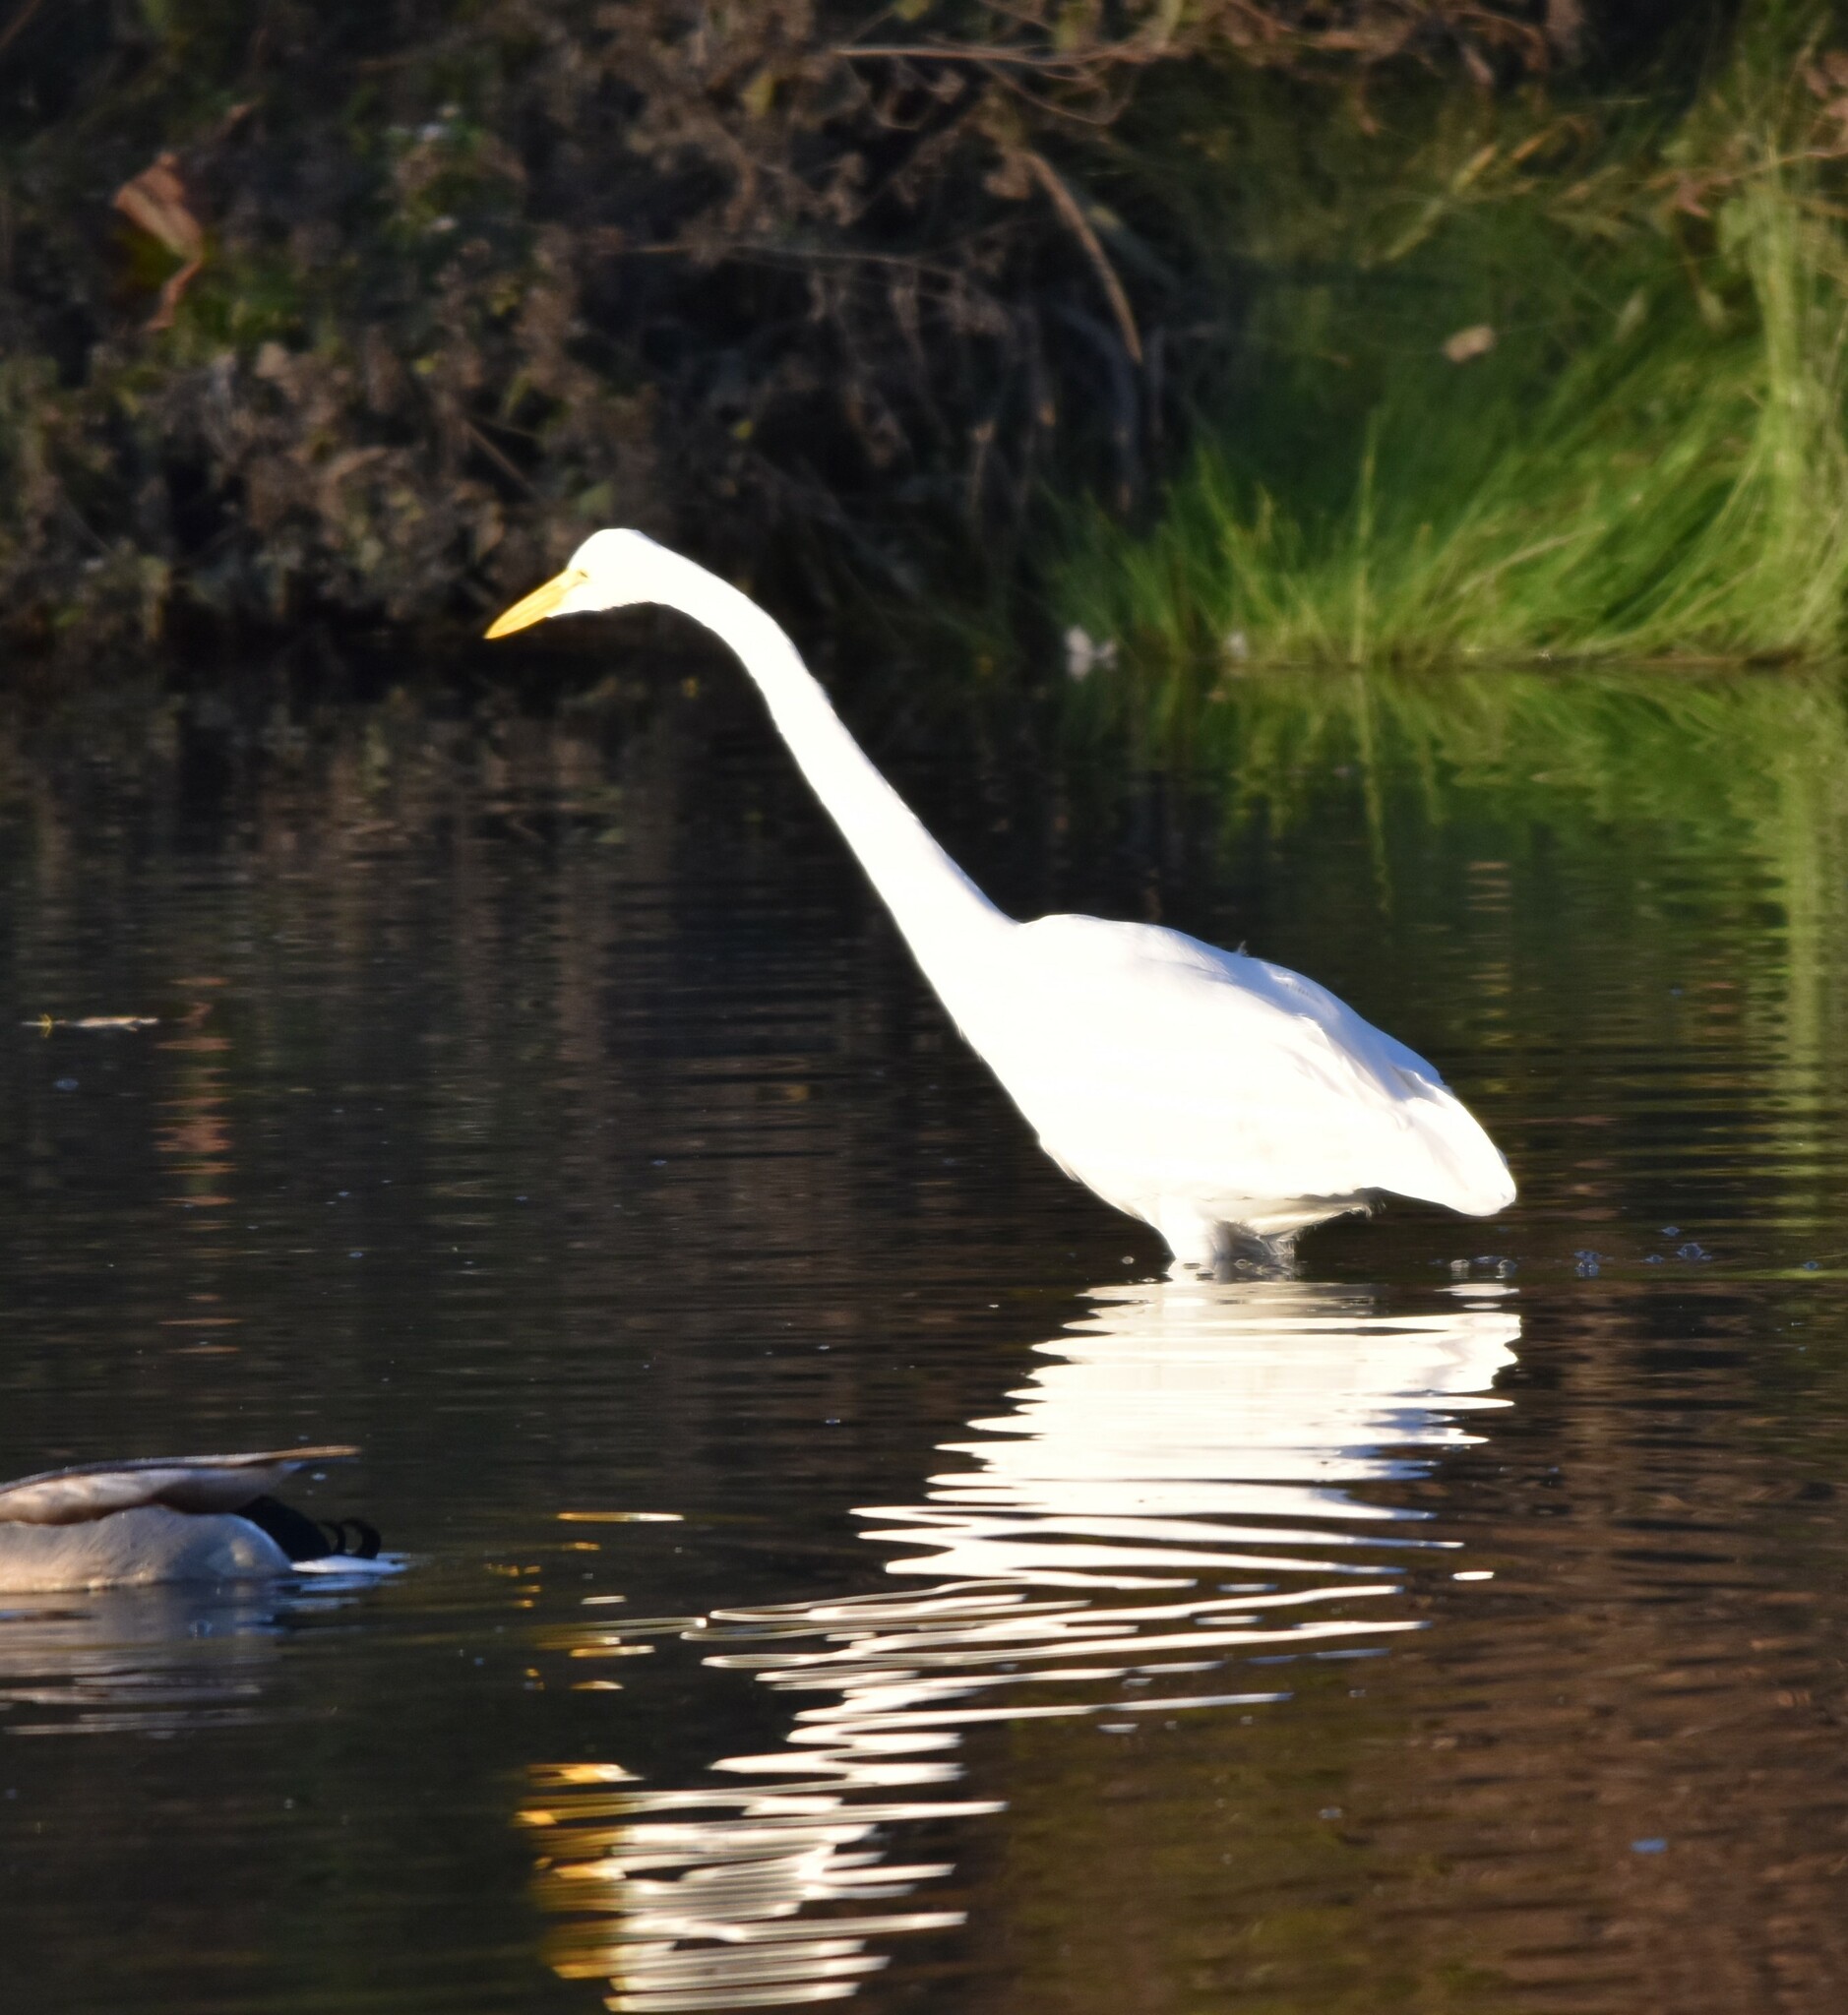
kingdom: Animalia
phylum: Chordata
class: Aves
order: Pelecaniformes
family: Ardeidae
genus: Ardea
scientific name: Ardea alba
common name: Great egret
